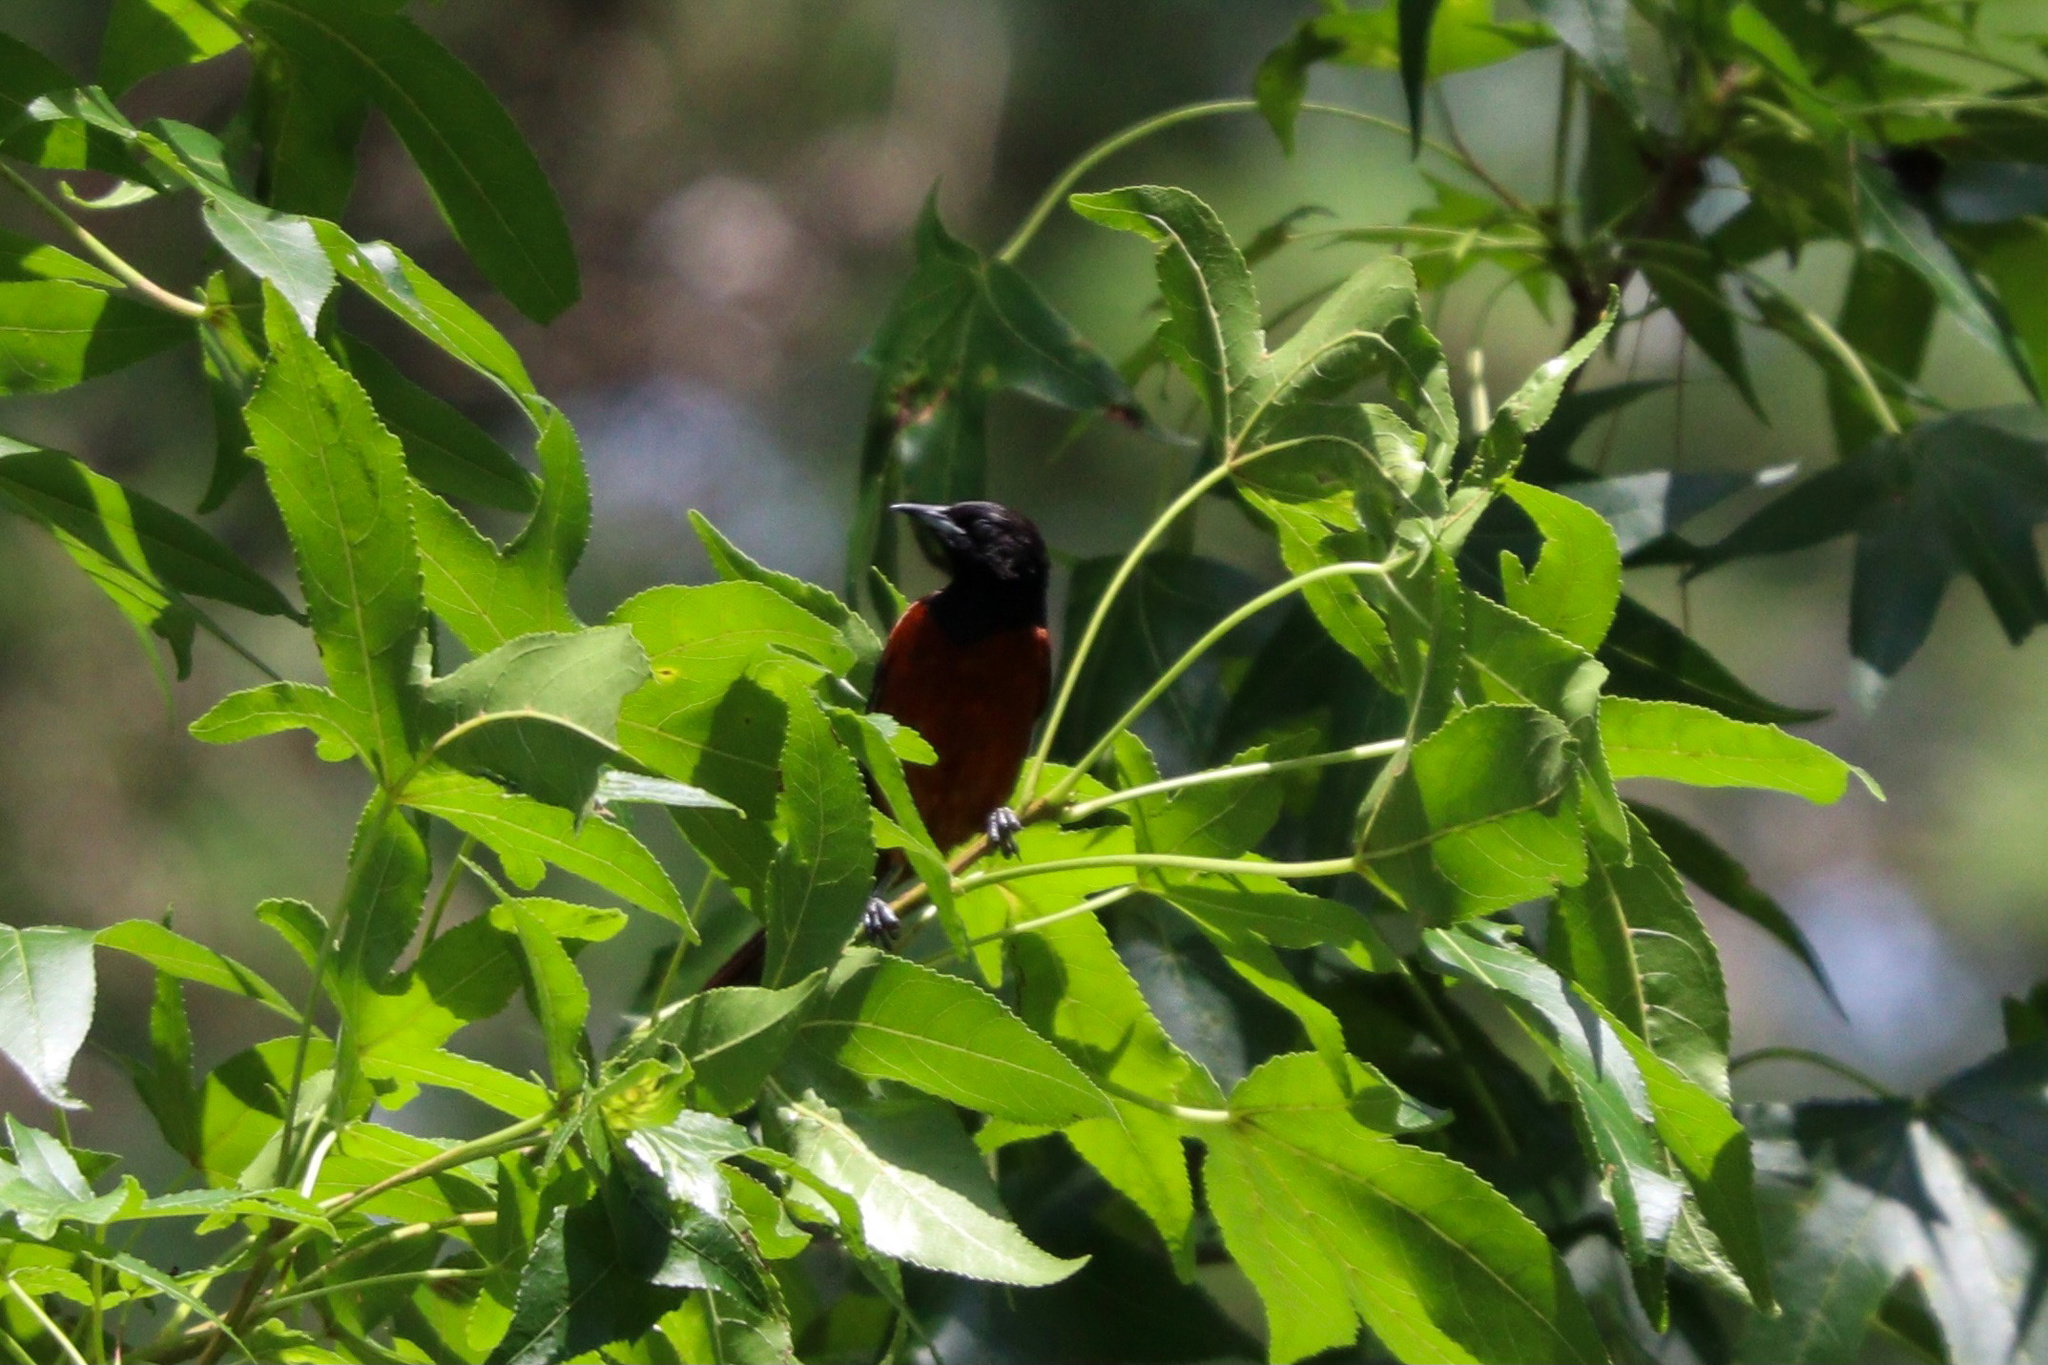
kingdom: Animalia
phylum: Chordata
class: Aves
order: Passeriformes
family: Icteridae
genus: Icterus
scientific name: Icterus spurius
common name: Orchard oriole
